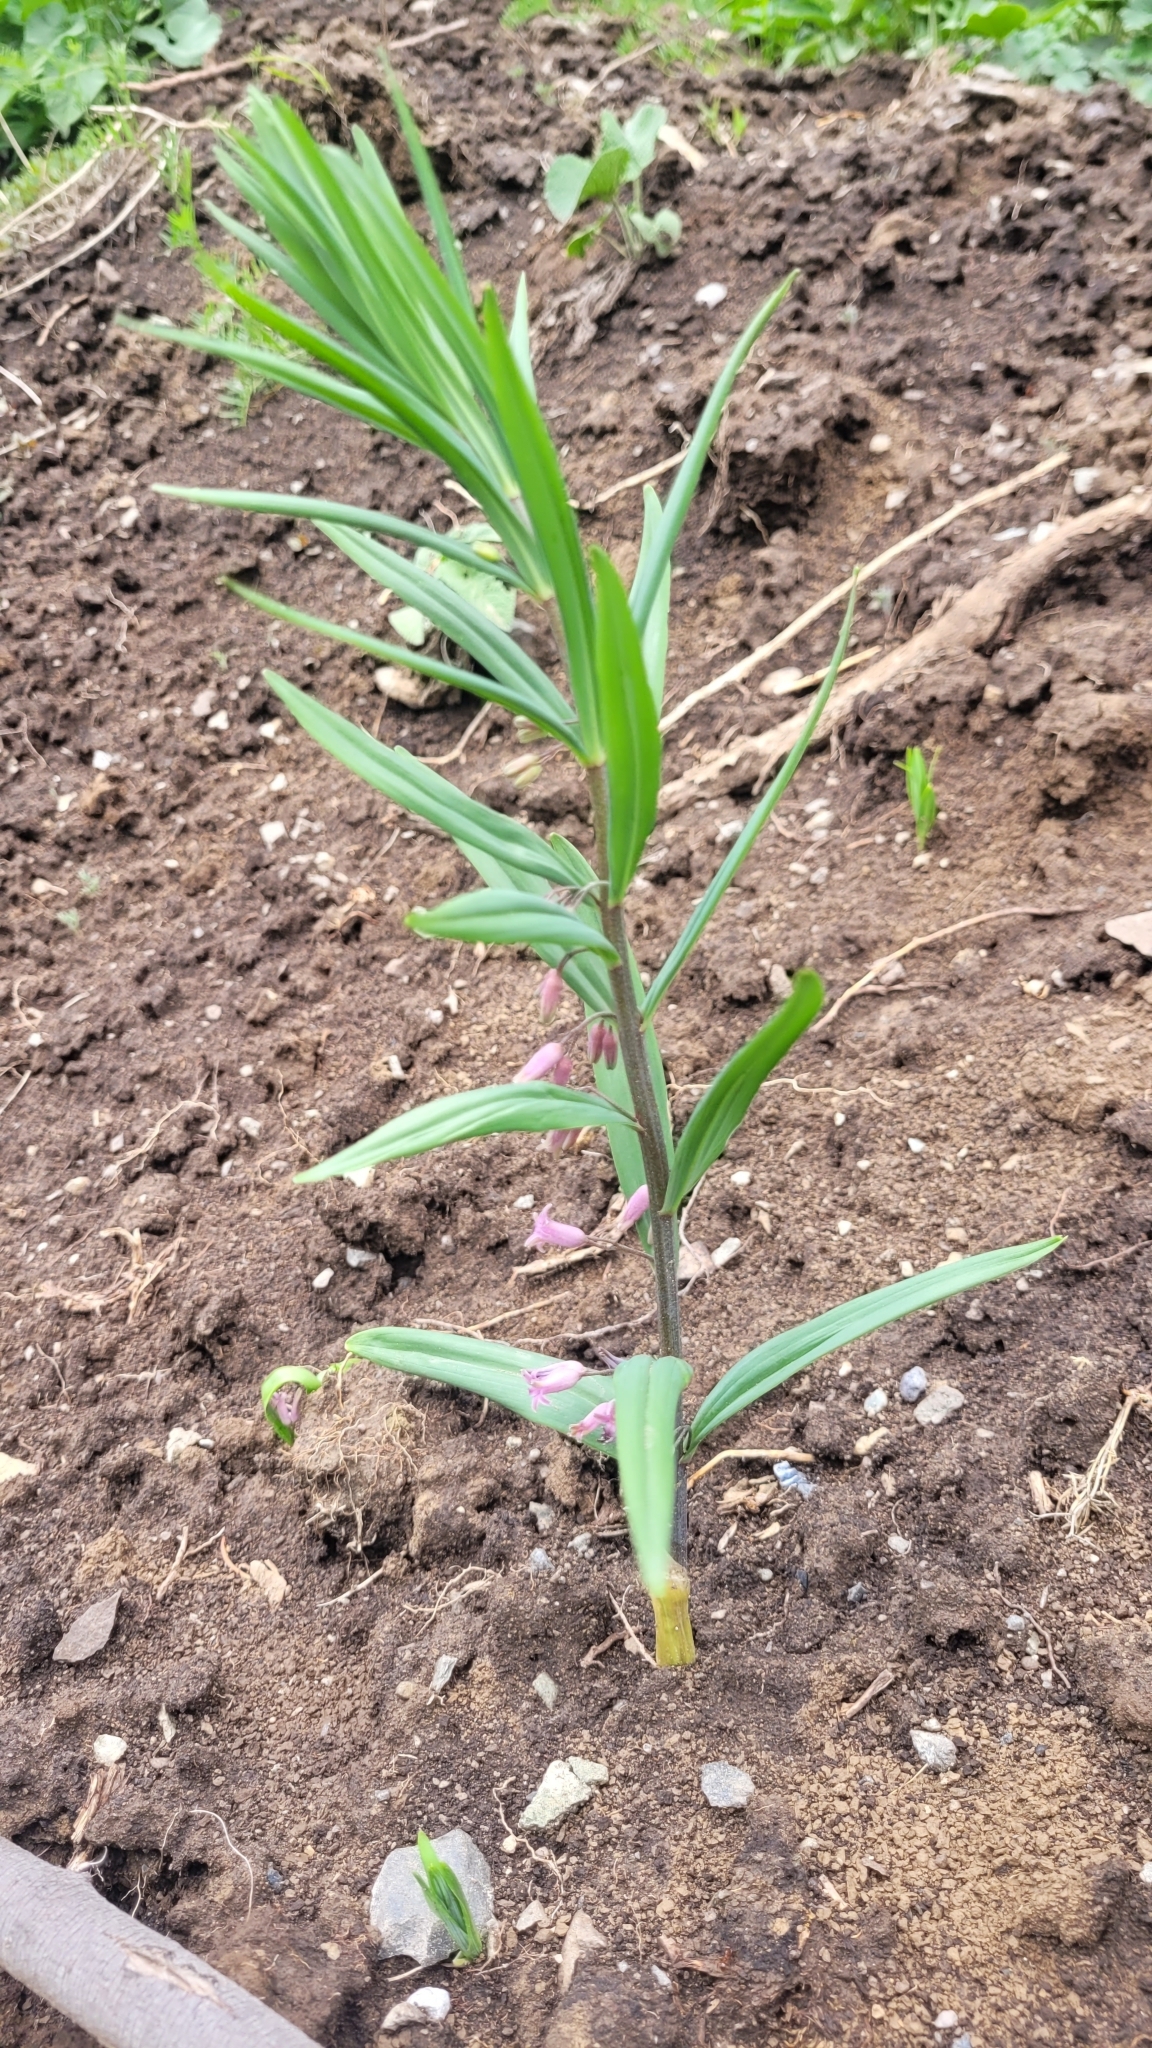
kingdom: Plantae
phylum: Tracheophyta
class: Liliopsida
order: Asparagales
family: Asparagaceae
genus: Polygonatum
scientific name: Polygonatum roseum
